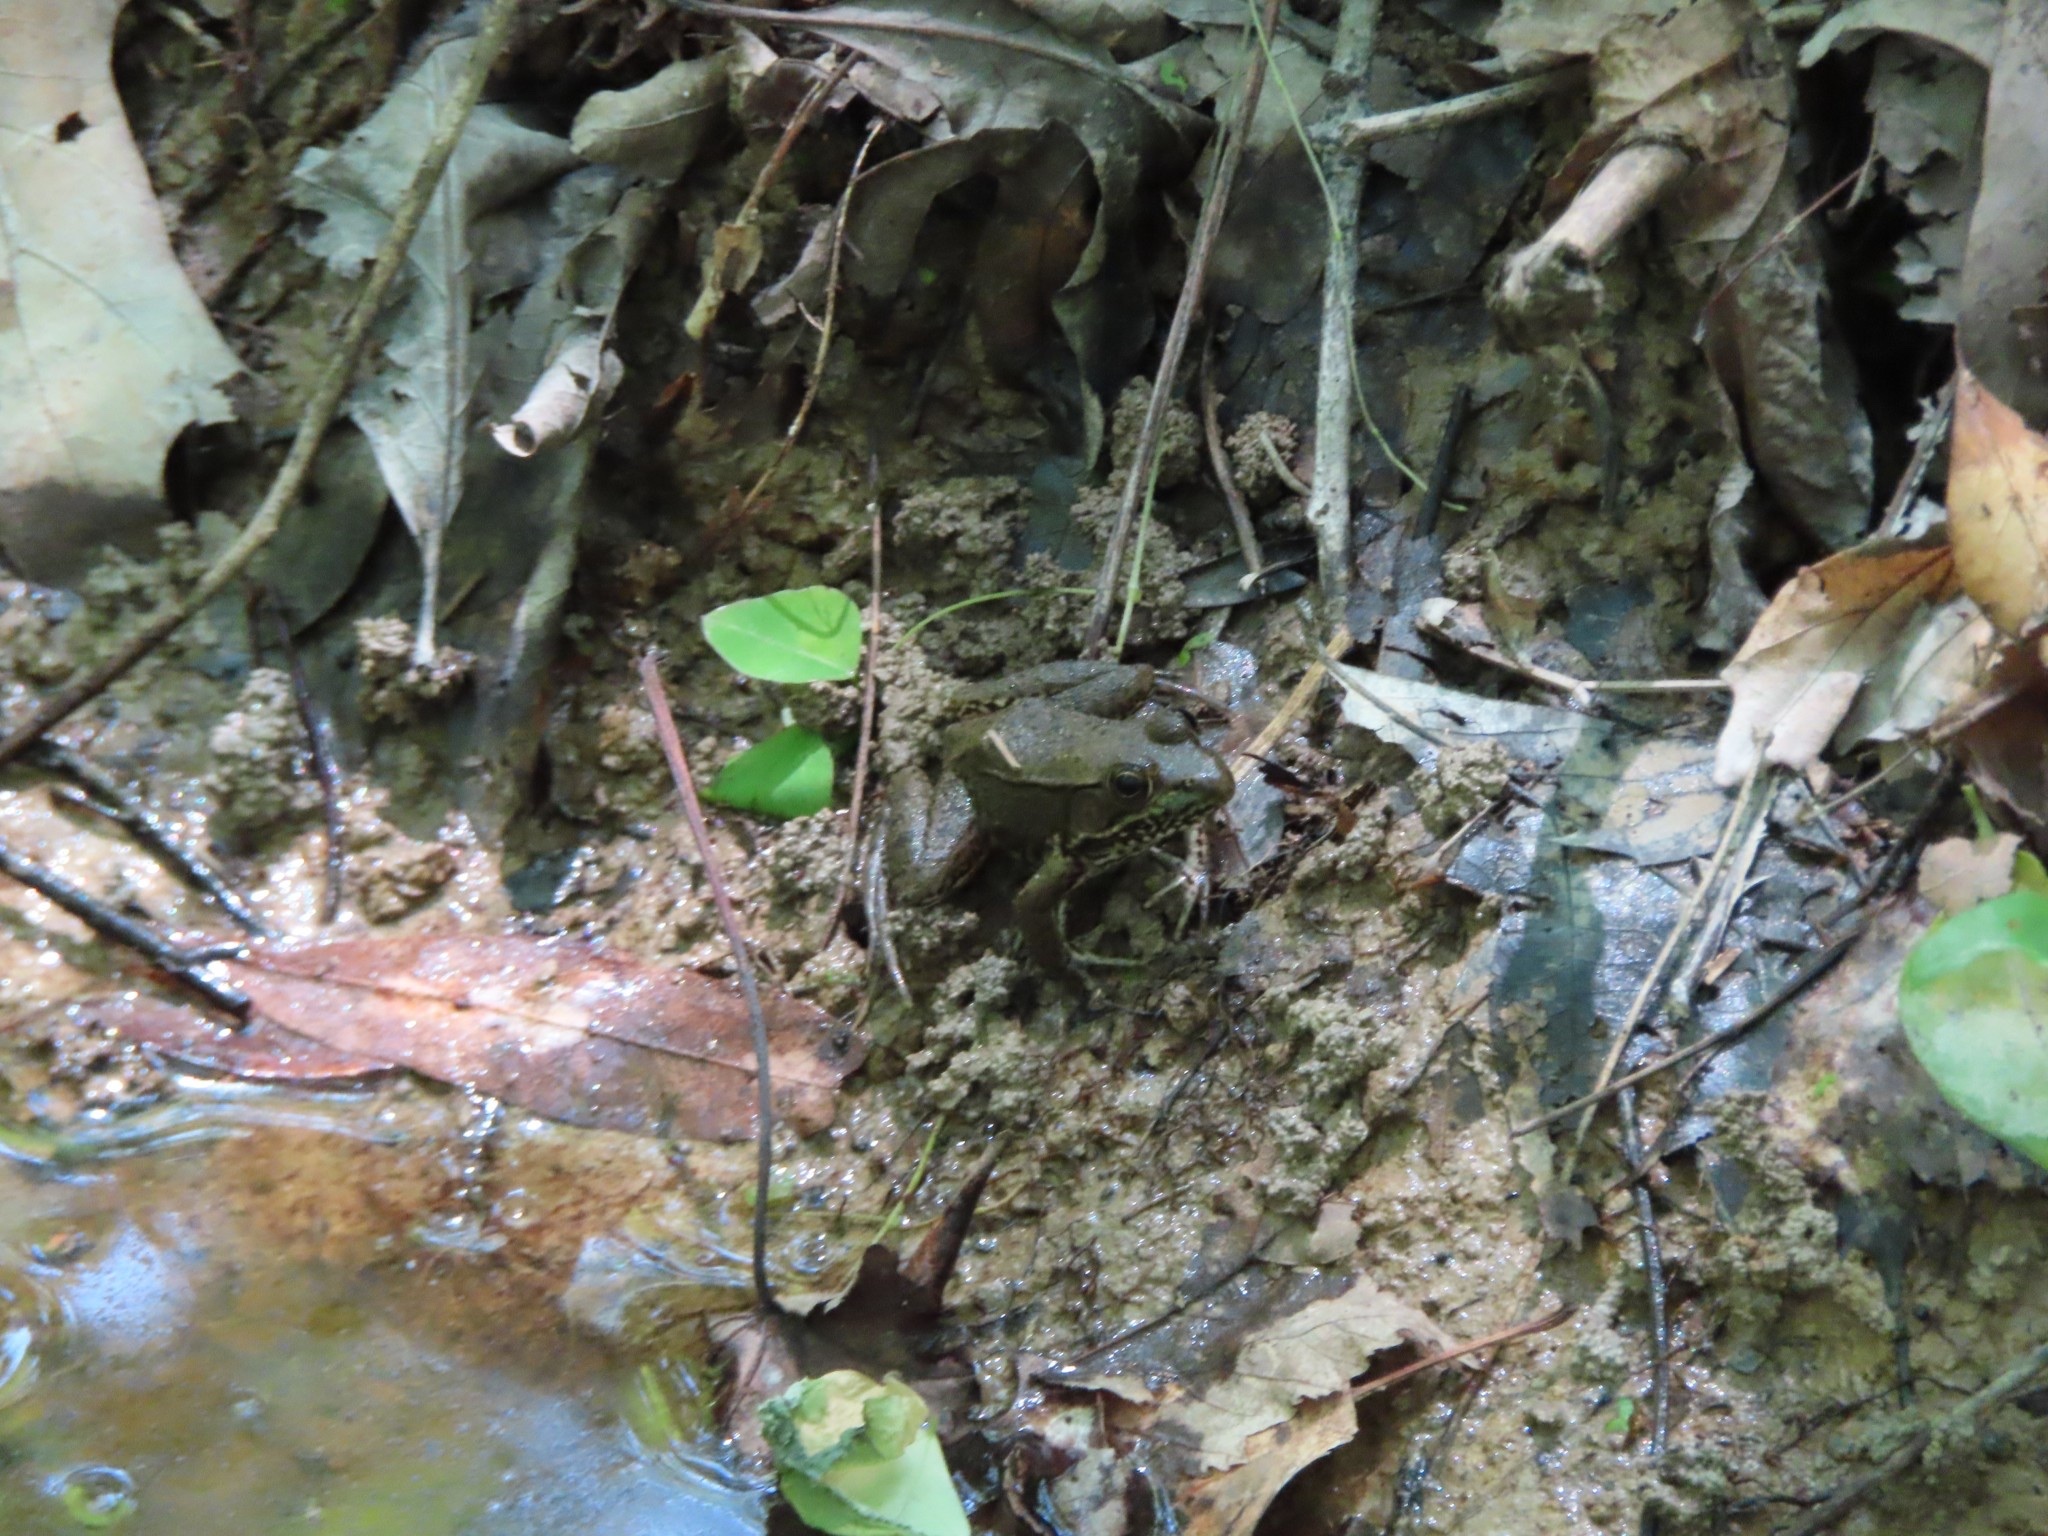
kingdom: Animalia
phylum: Chordata
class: Amphibia
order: Anura
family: Ranidae
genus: Lithobates
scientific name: Lithobates clamitans
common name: Green frog
